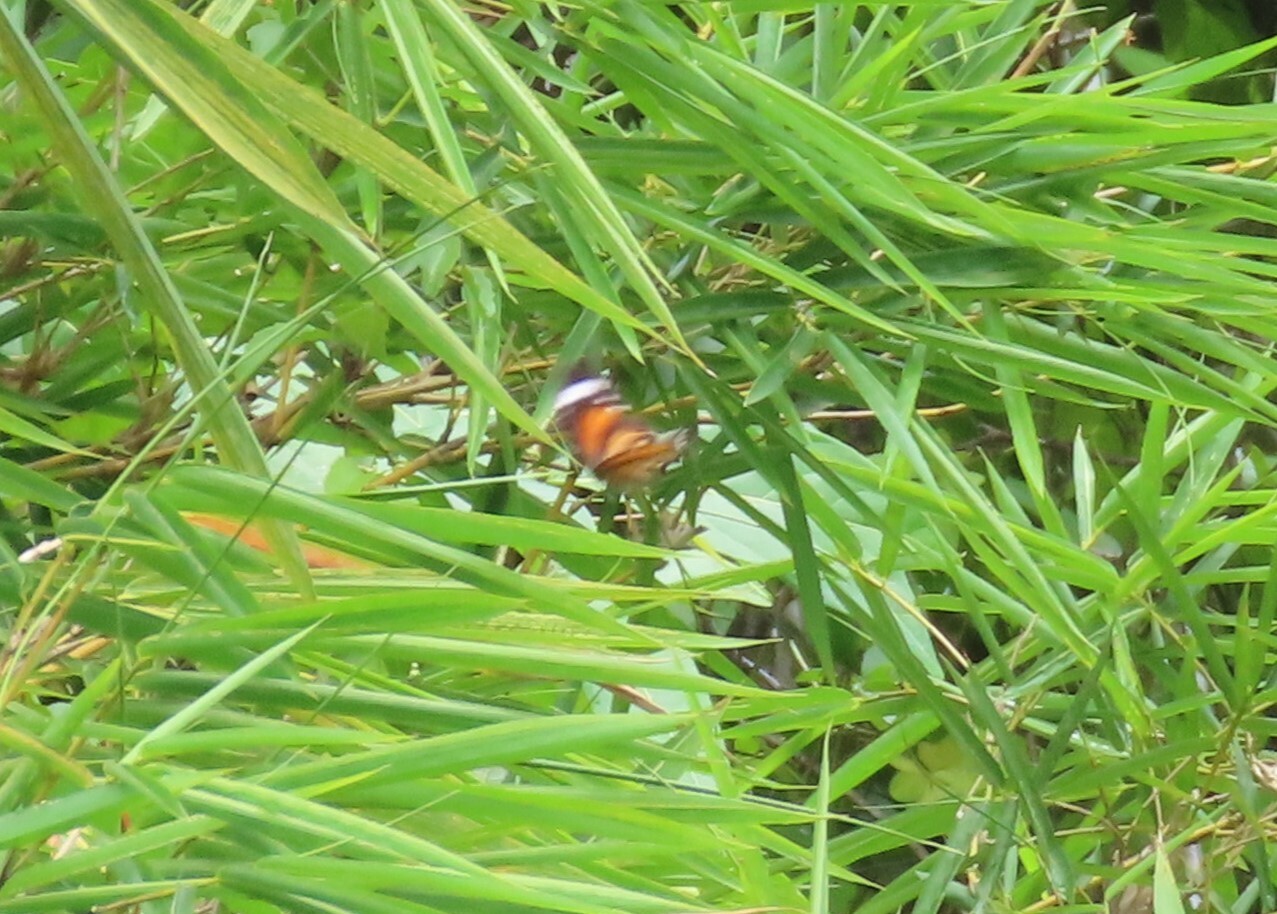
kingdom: Animalia
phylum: Arthropoda
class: Insecta
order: Lepidoptera
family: Nymphalidae
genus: Danaus
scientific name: Danaus genutia
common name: Common tiger butterfly
